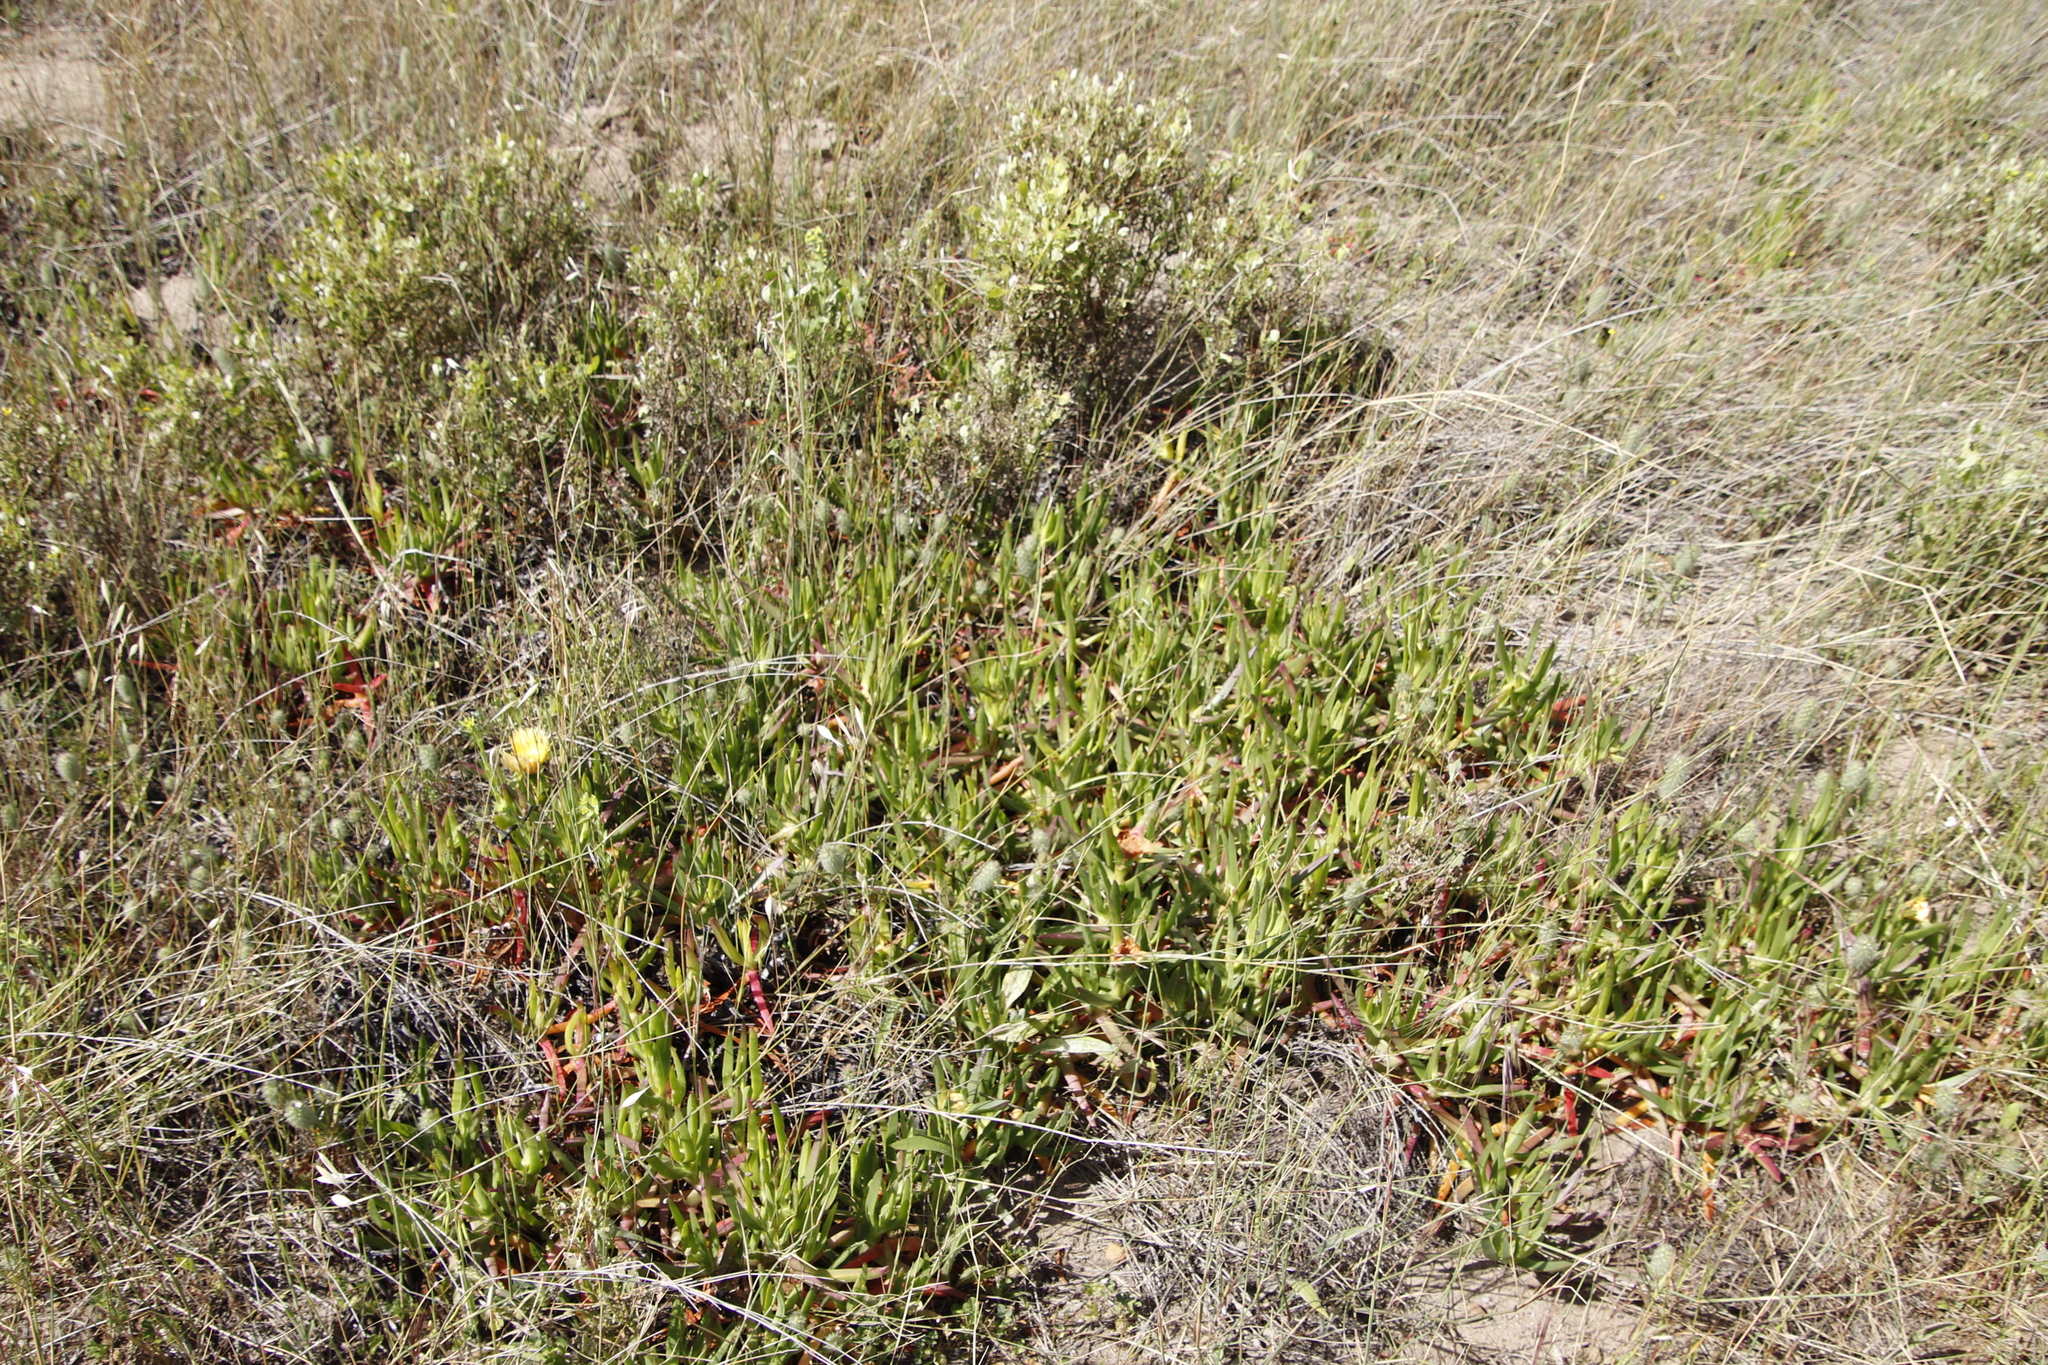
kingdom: Plantae
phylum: Tracheophyta
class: Magnoliopsida
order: Caryophyllales
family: Aizoaceae
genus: Carpobrotus
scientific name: Carpobrotus edulis
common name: Hottentot-fig
